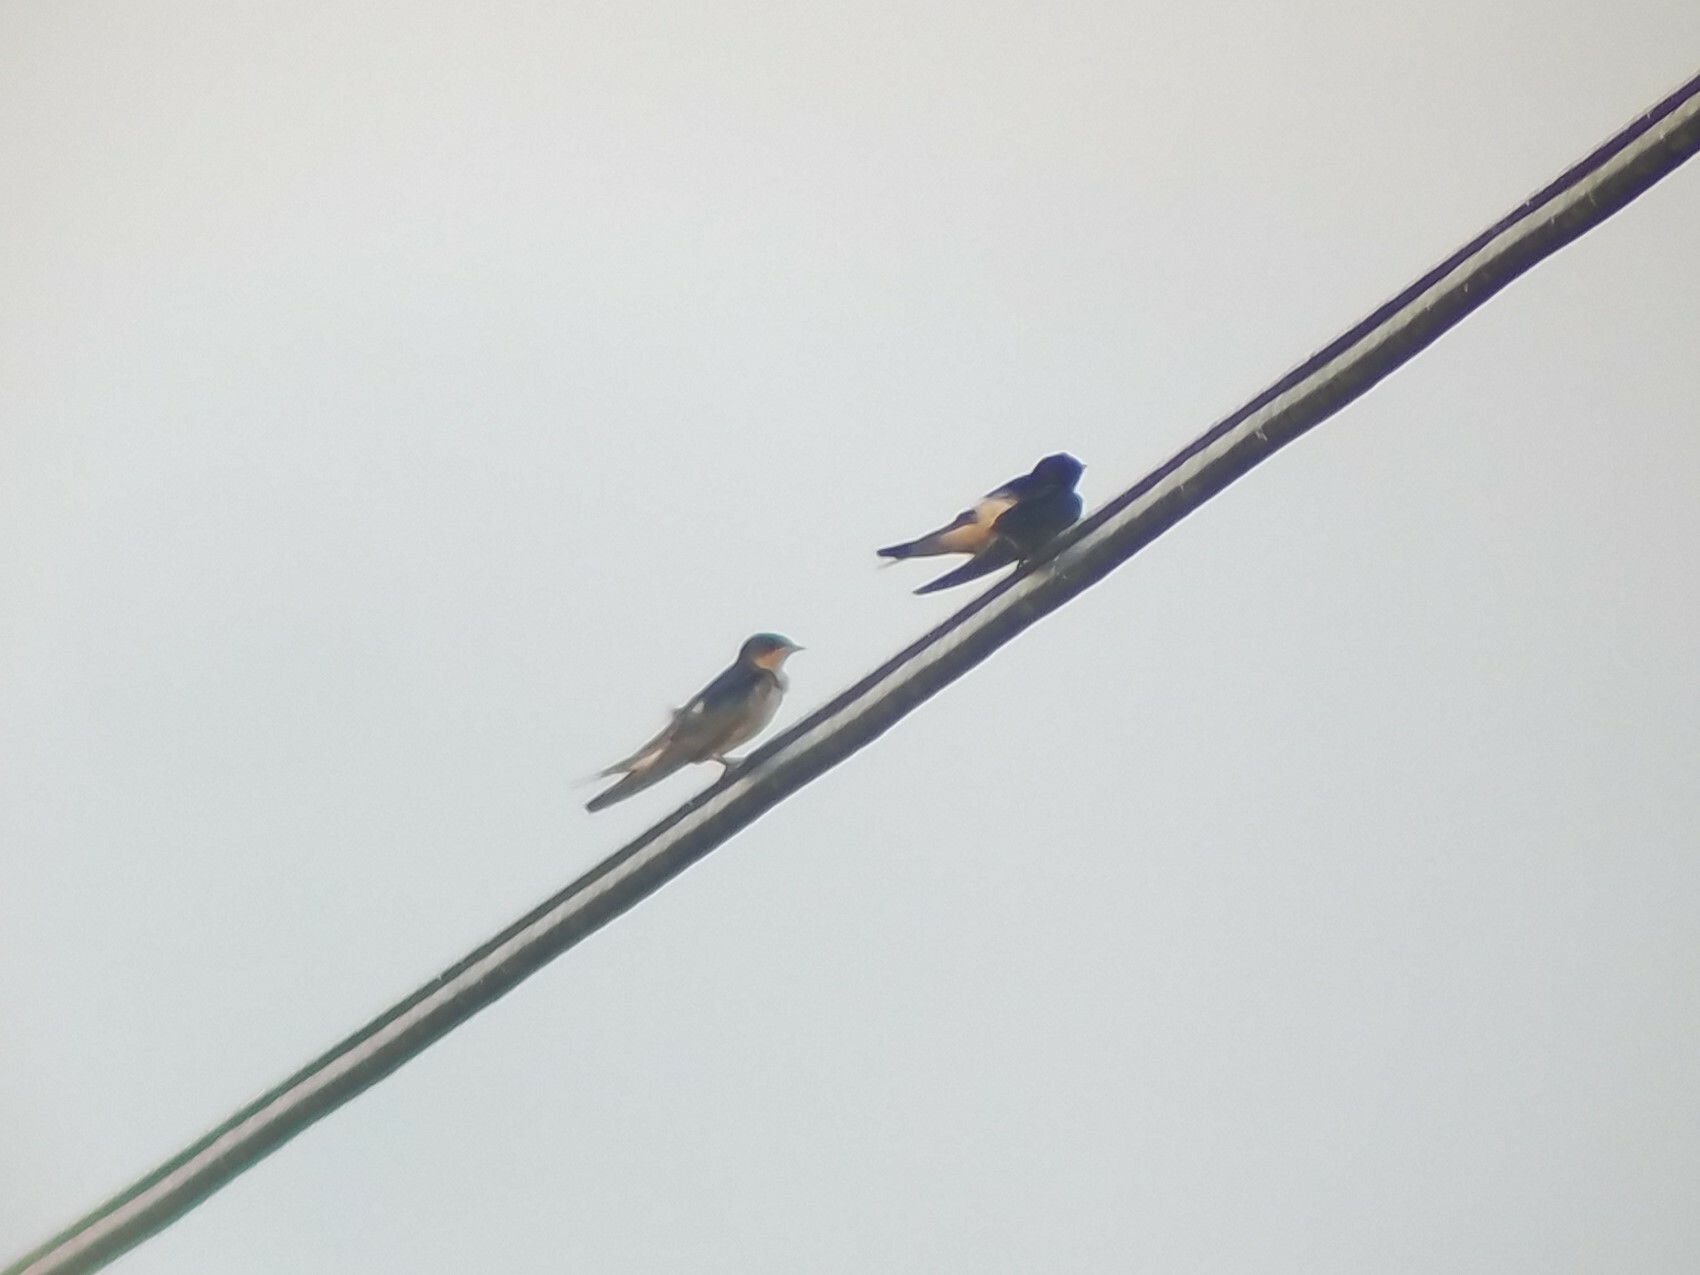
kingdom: Animalia
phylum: Chordata
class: Aves
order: Passeriformes
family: Hirundinidae
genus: Hirundo
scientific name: Hirundo rustica
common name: Barn swallow
